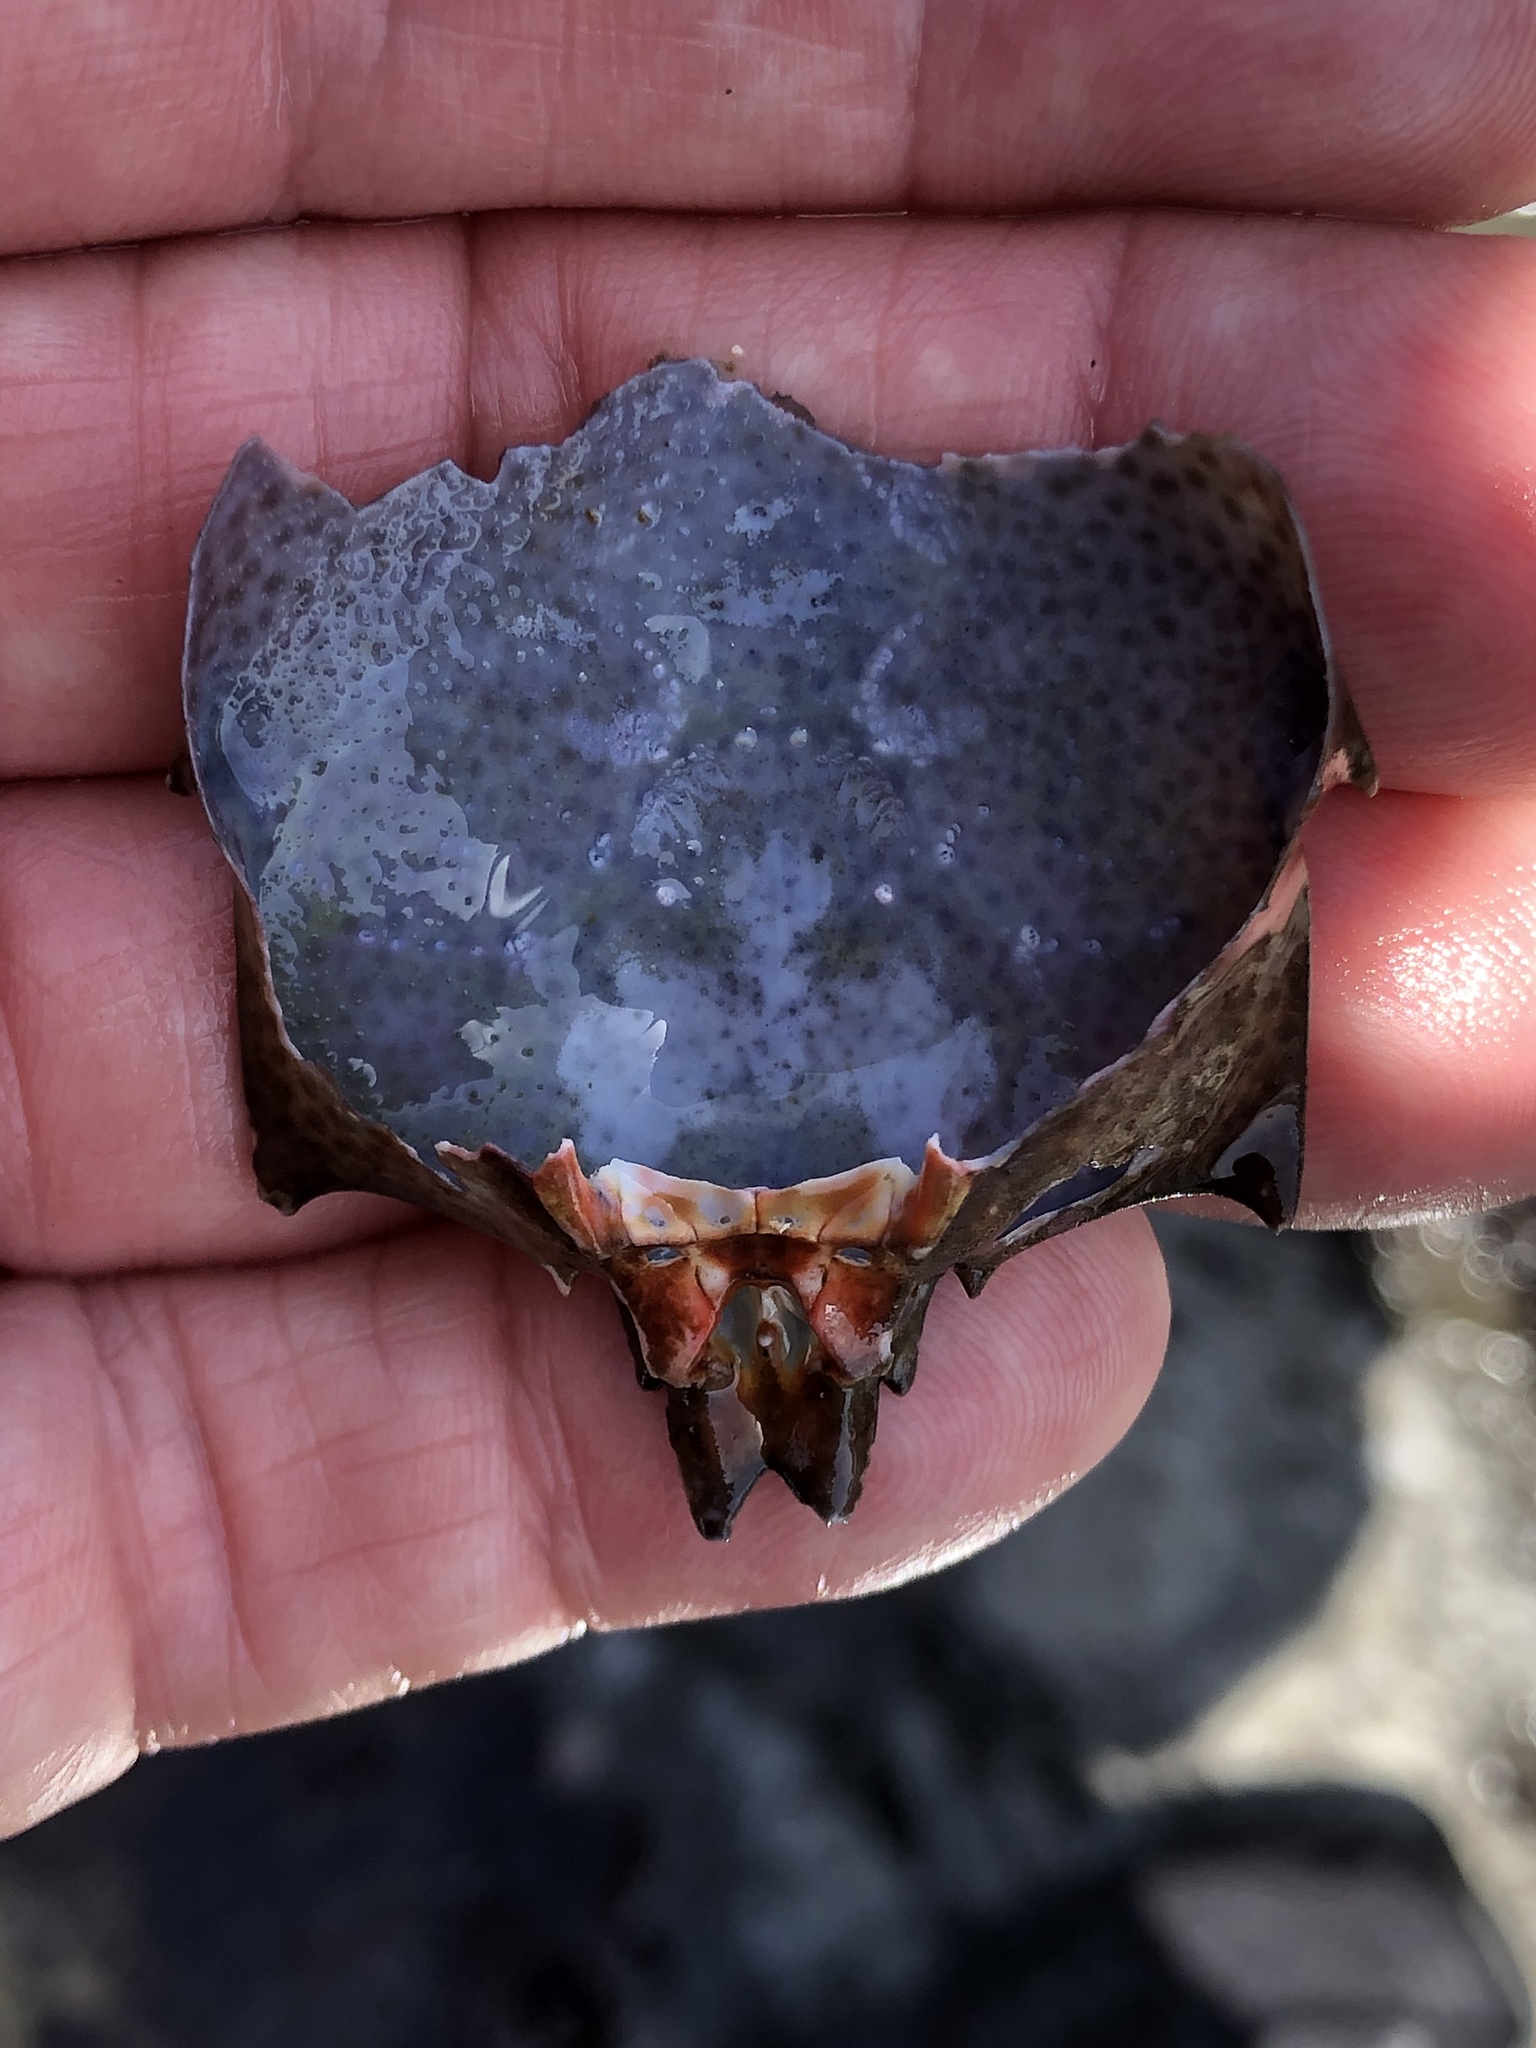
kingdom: Animalia
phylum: Arthropoda
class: Malacostraca
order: Decapoda
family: Epialtidae
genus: Pugettia
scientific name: Pugettia producta
